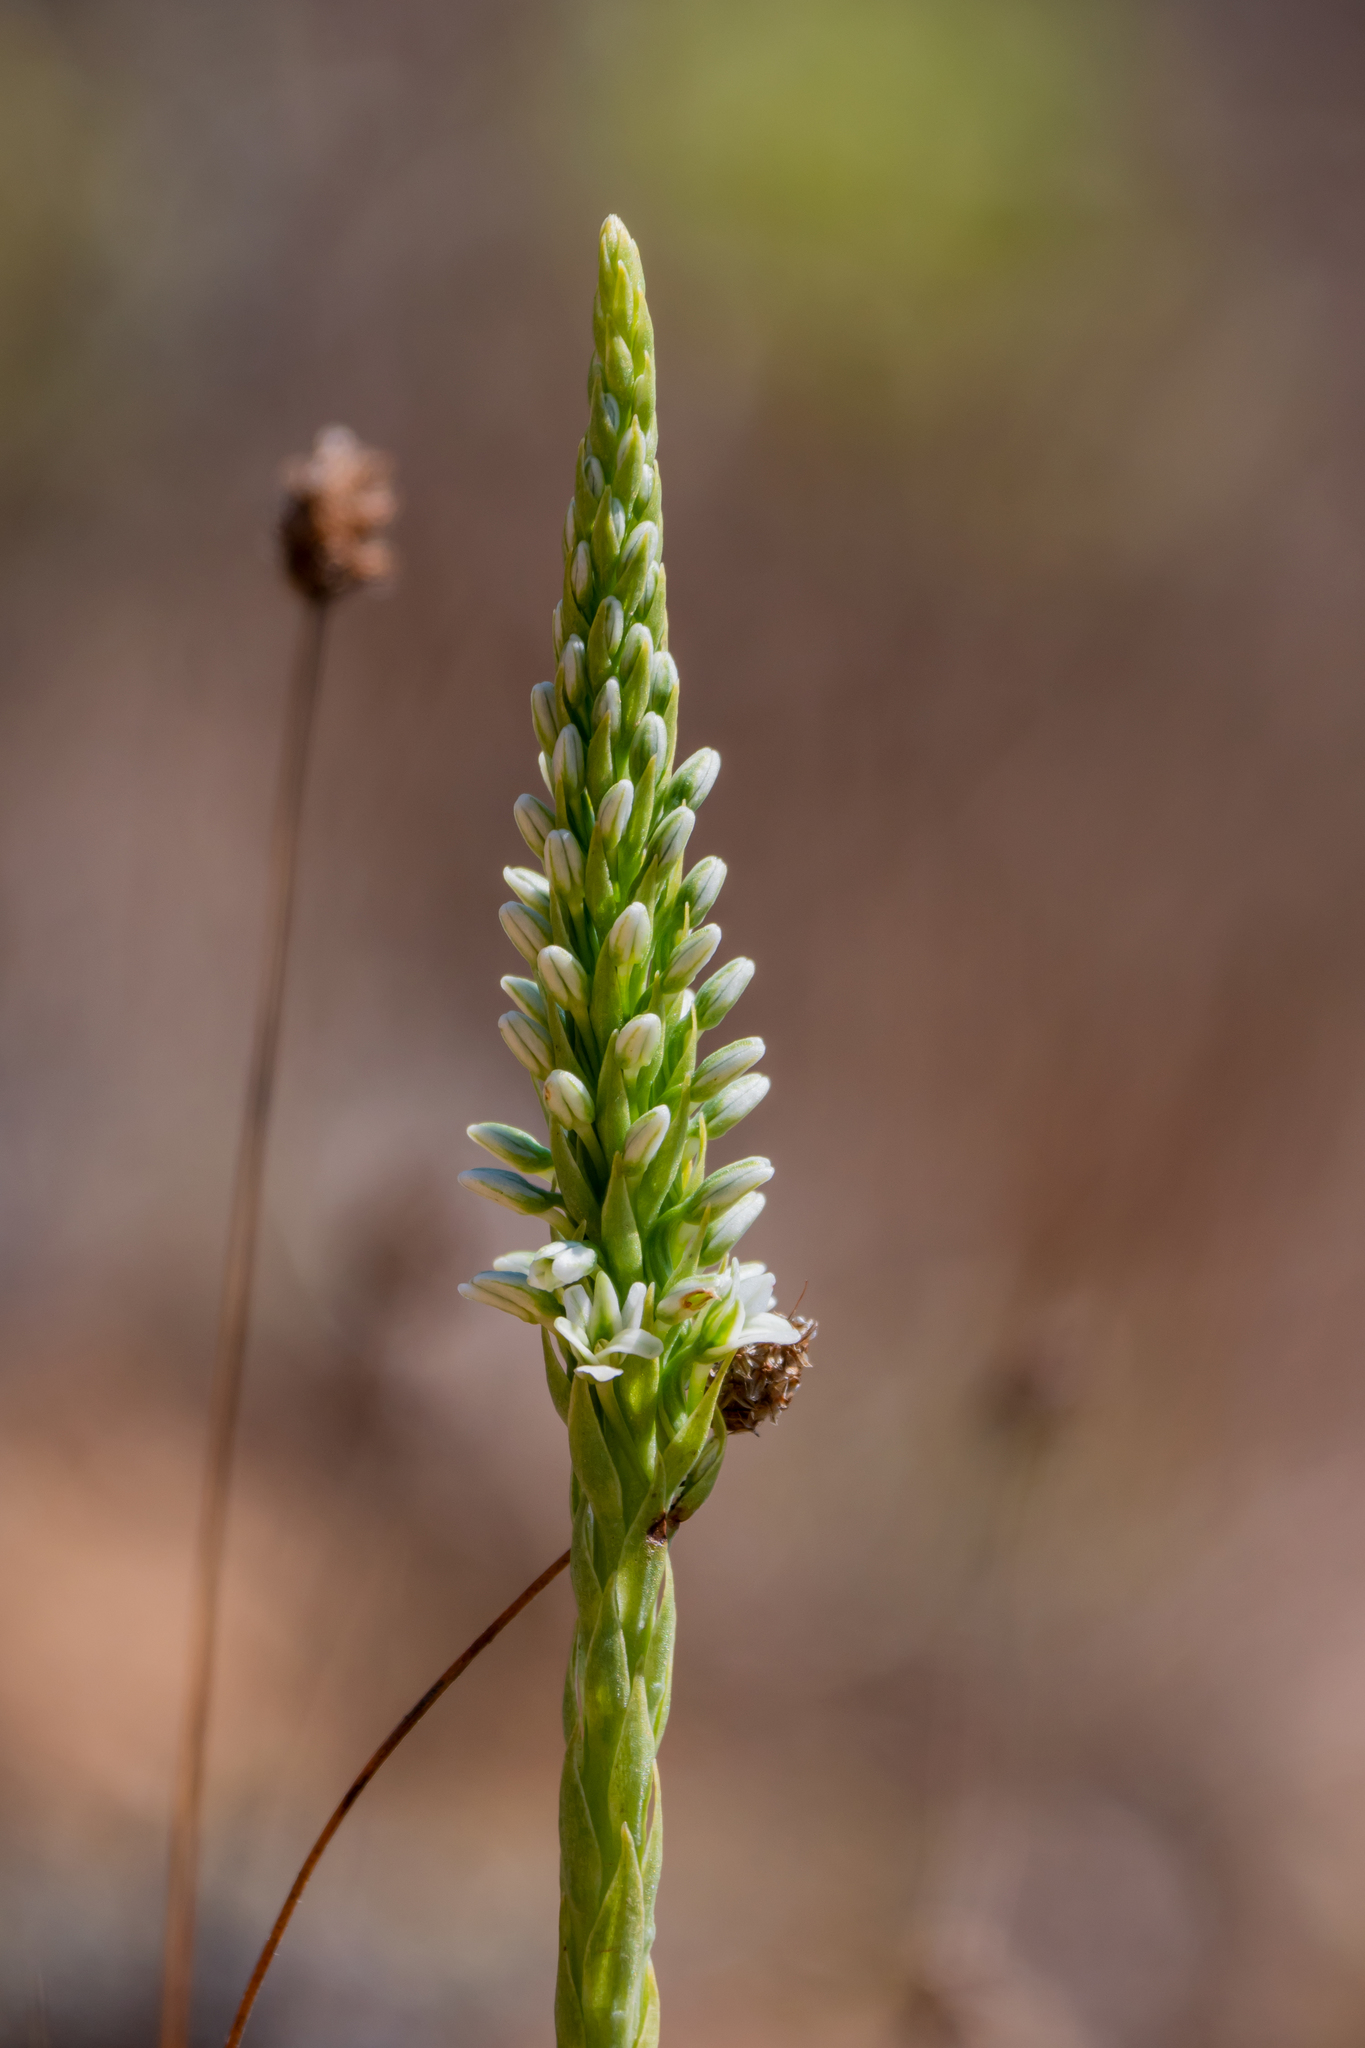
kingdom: Plantae
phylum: Tracheophyta
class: Liliopsida
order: Asparagales
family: Orchidaceae
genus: Platanthera
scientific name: Platanthera elegans
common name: Coast piperia
